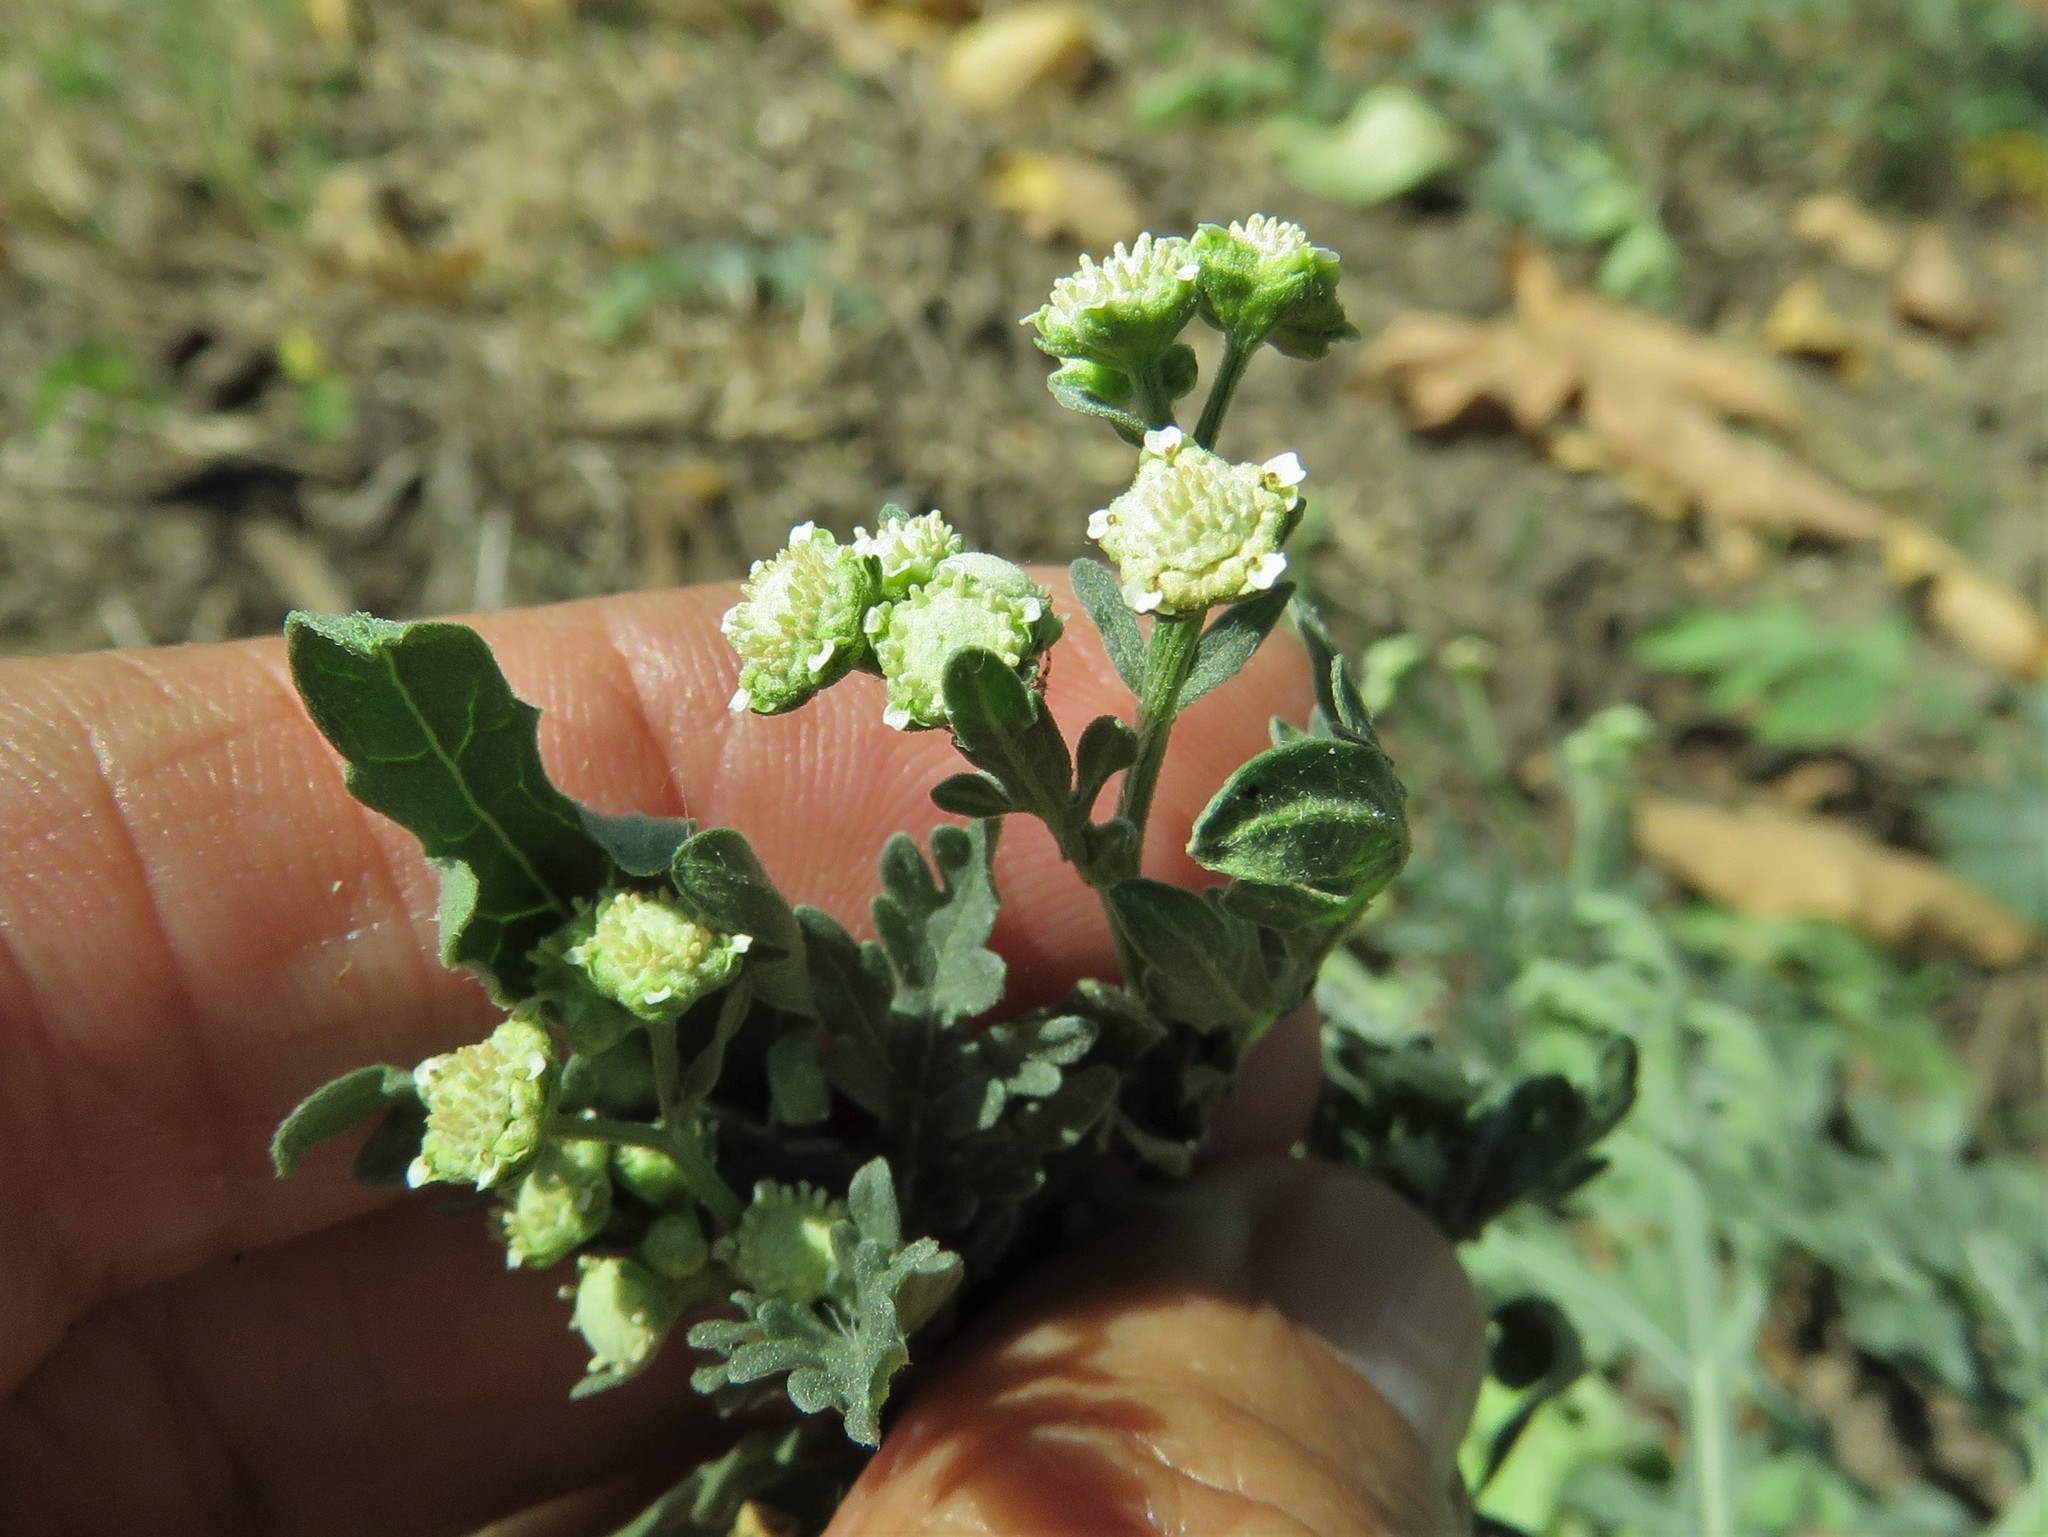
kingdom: Plantae
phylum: Tracheophyta
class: Magnoliopsida
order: Asterales
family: Asteraceae
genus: Parthenium
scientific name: Parthenium hysterophorus
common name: Santa maria feverfew
